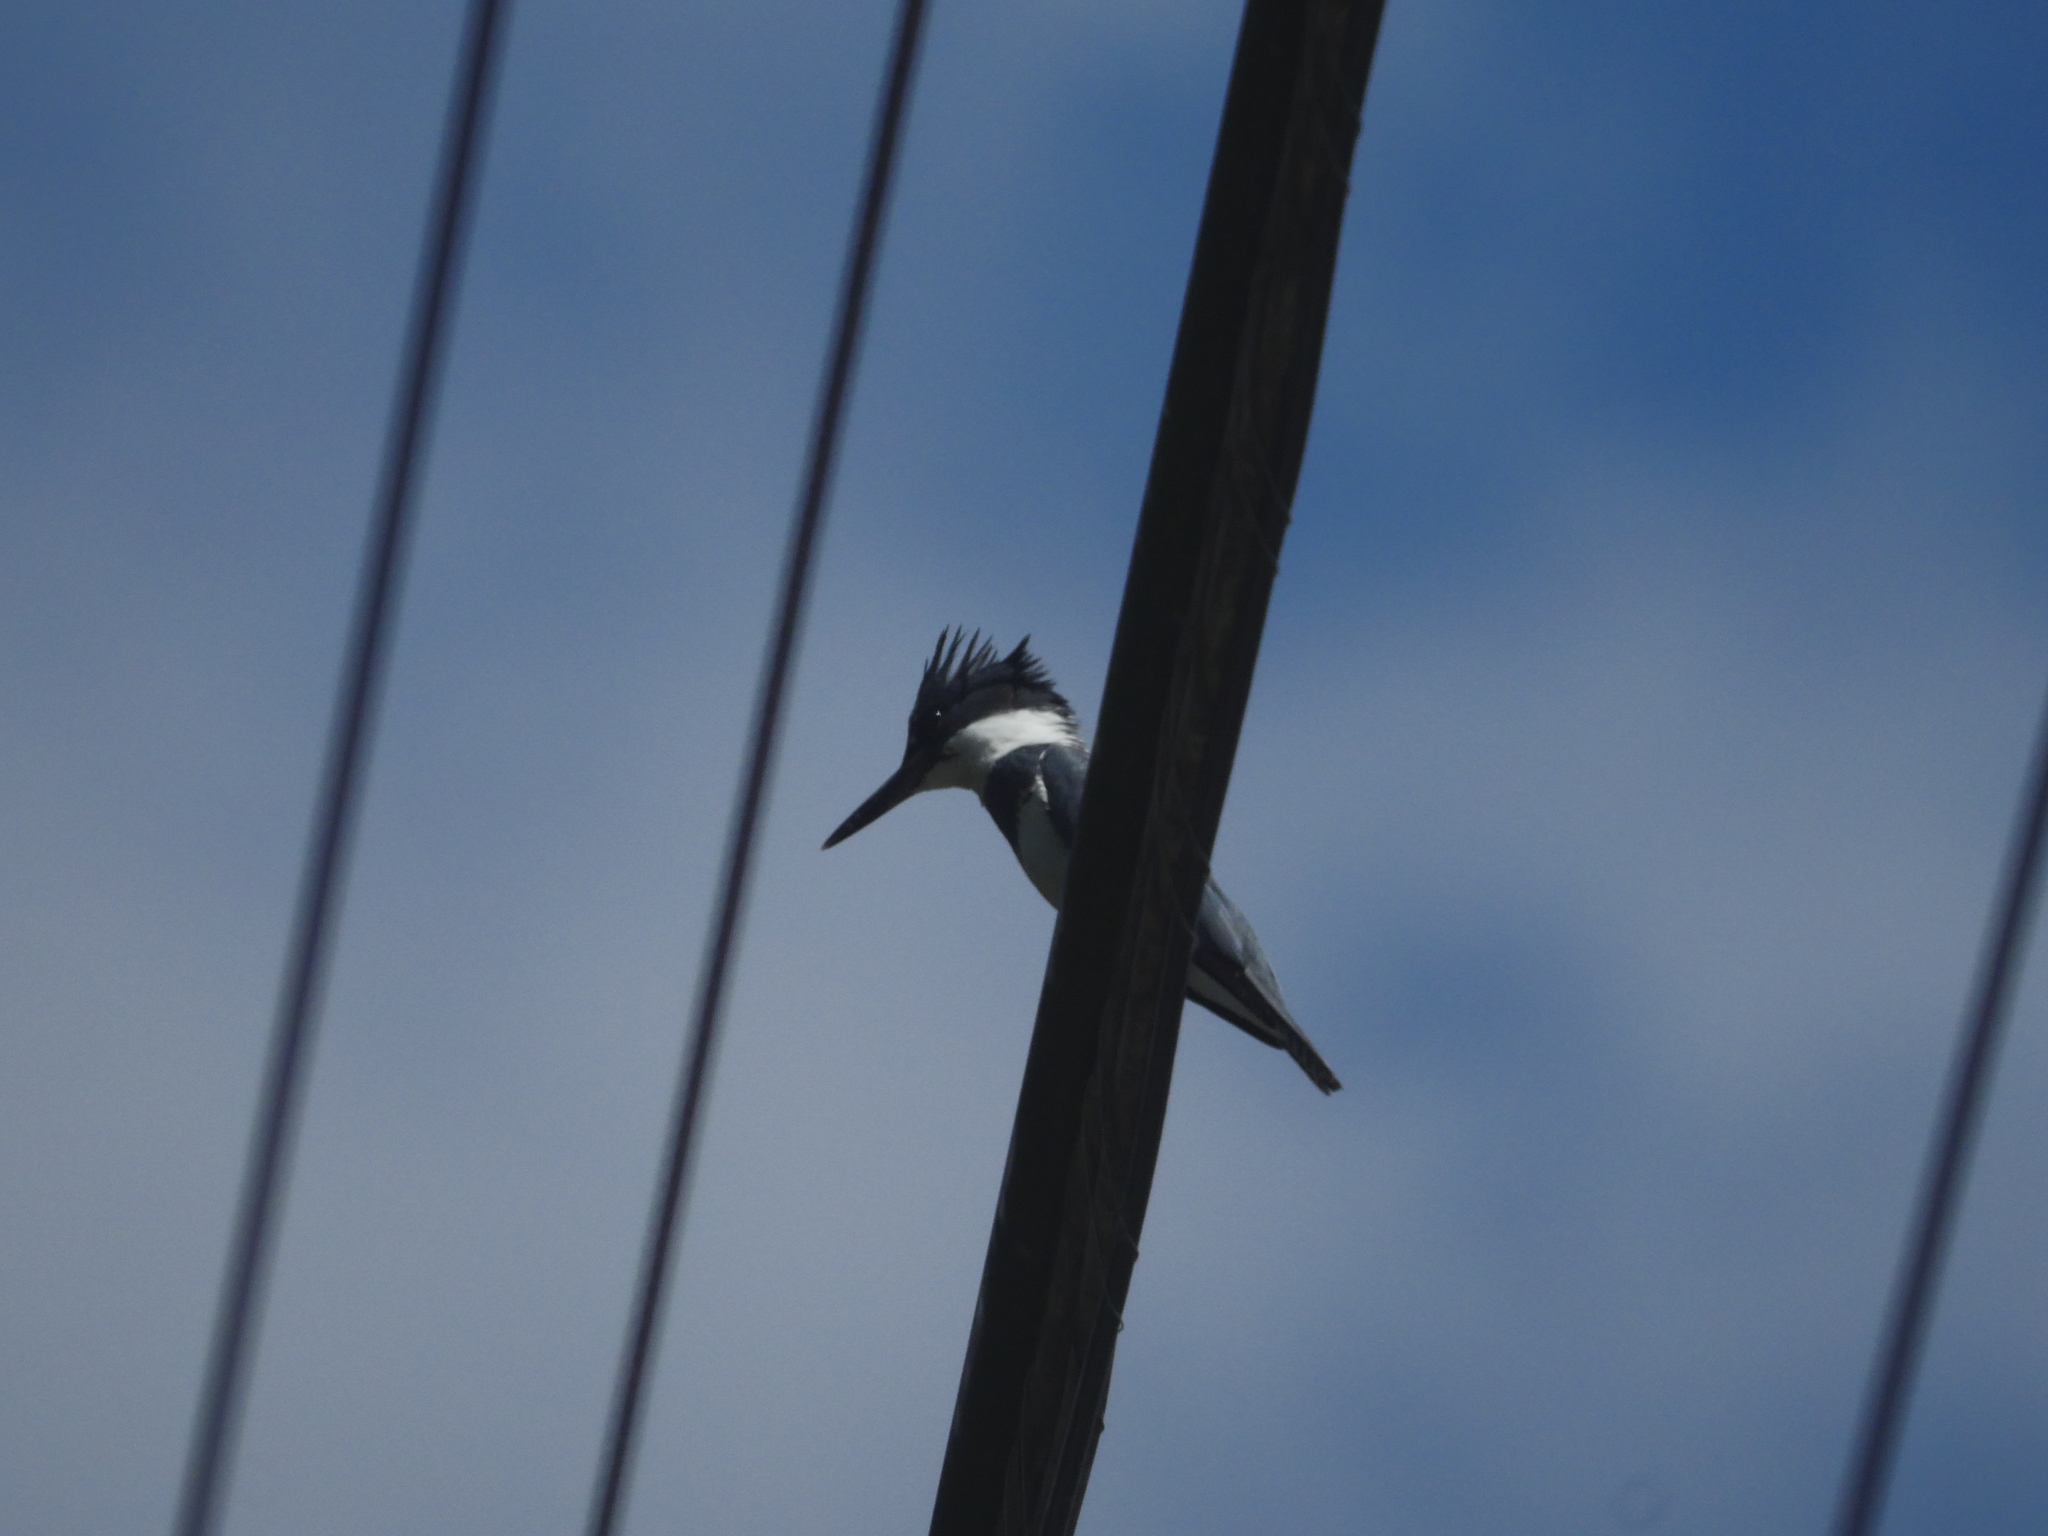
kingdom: Animalia
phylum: Chordata
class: Aves
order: Coraciiformes
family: Alcedinidae
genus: Megaceryle
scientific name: Megaceryle alcyon
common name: Belted kingfisher
